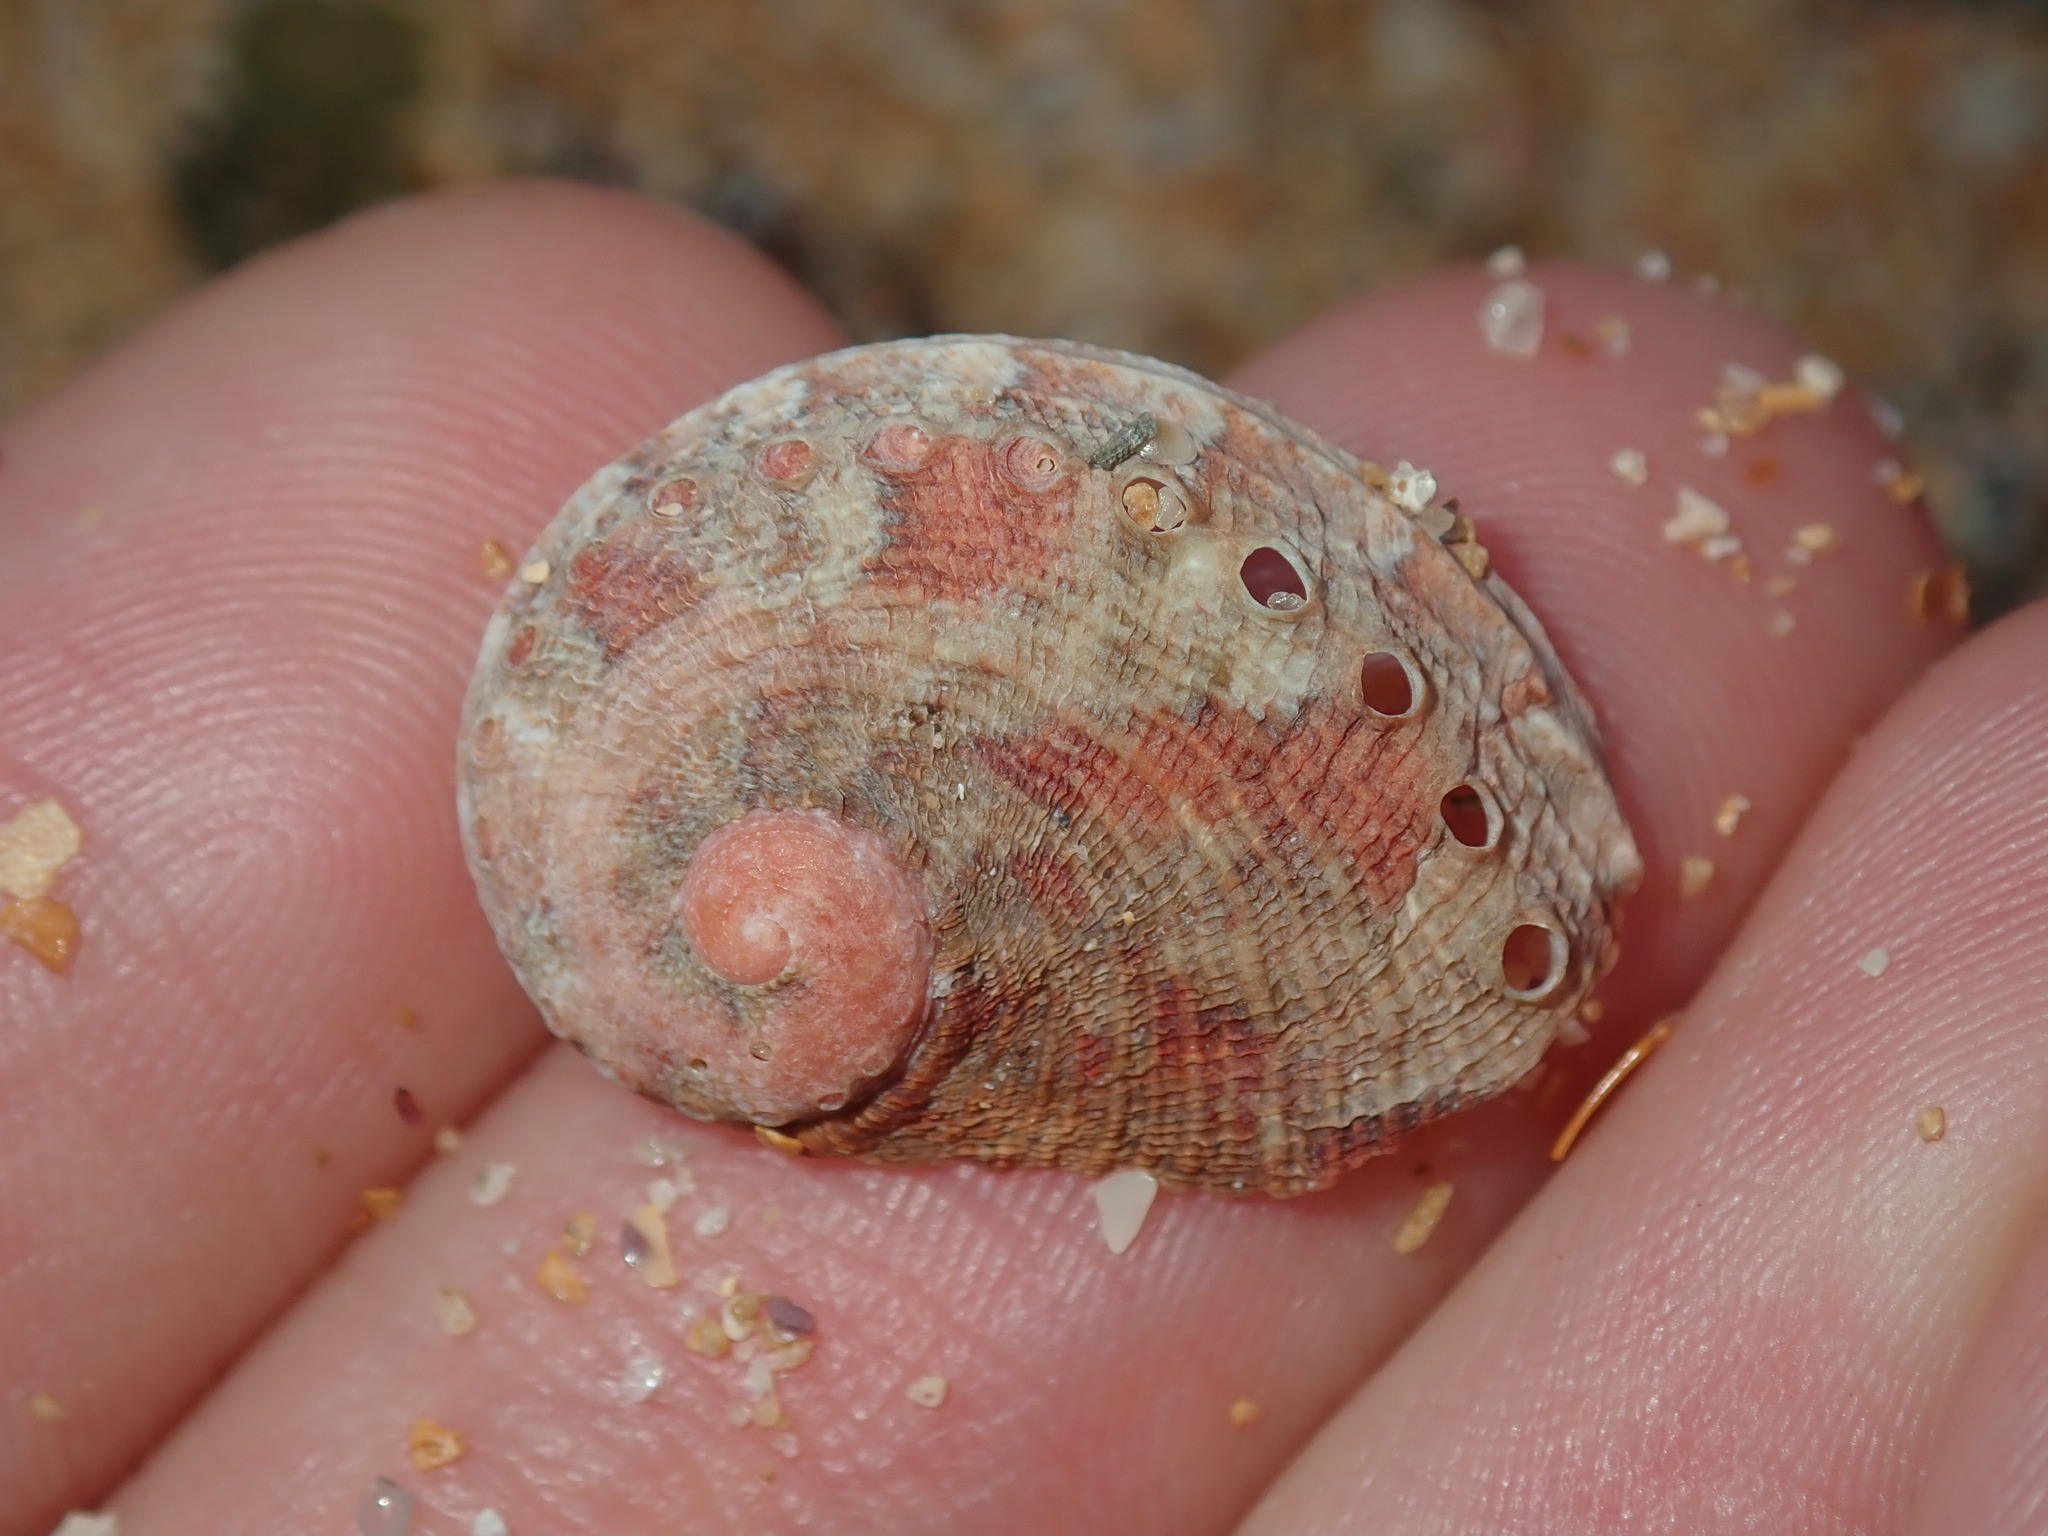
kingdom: Animalia
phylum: Mollusca
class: Gastropoda
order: Lepetellida
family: Haliotidae
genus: Haliotis
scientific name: Haliotis coccoradiata
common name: Reddish-rayed abalone
